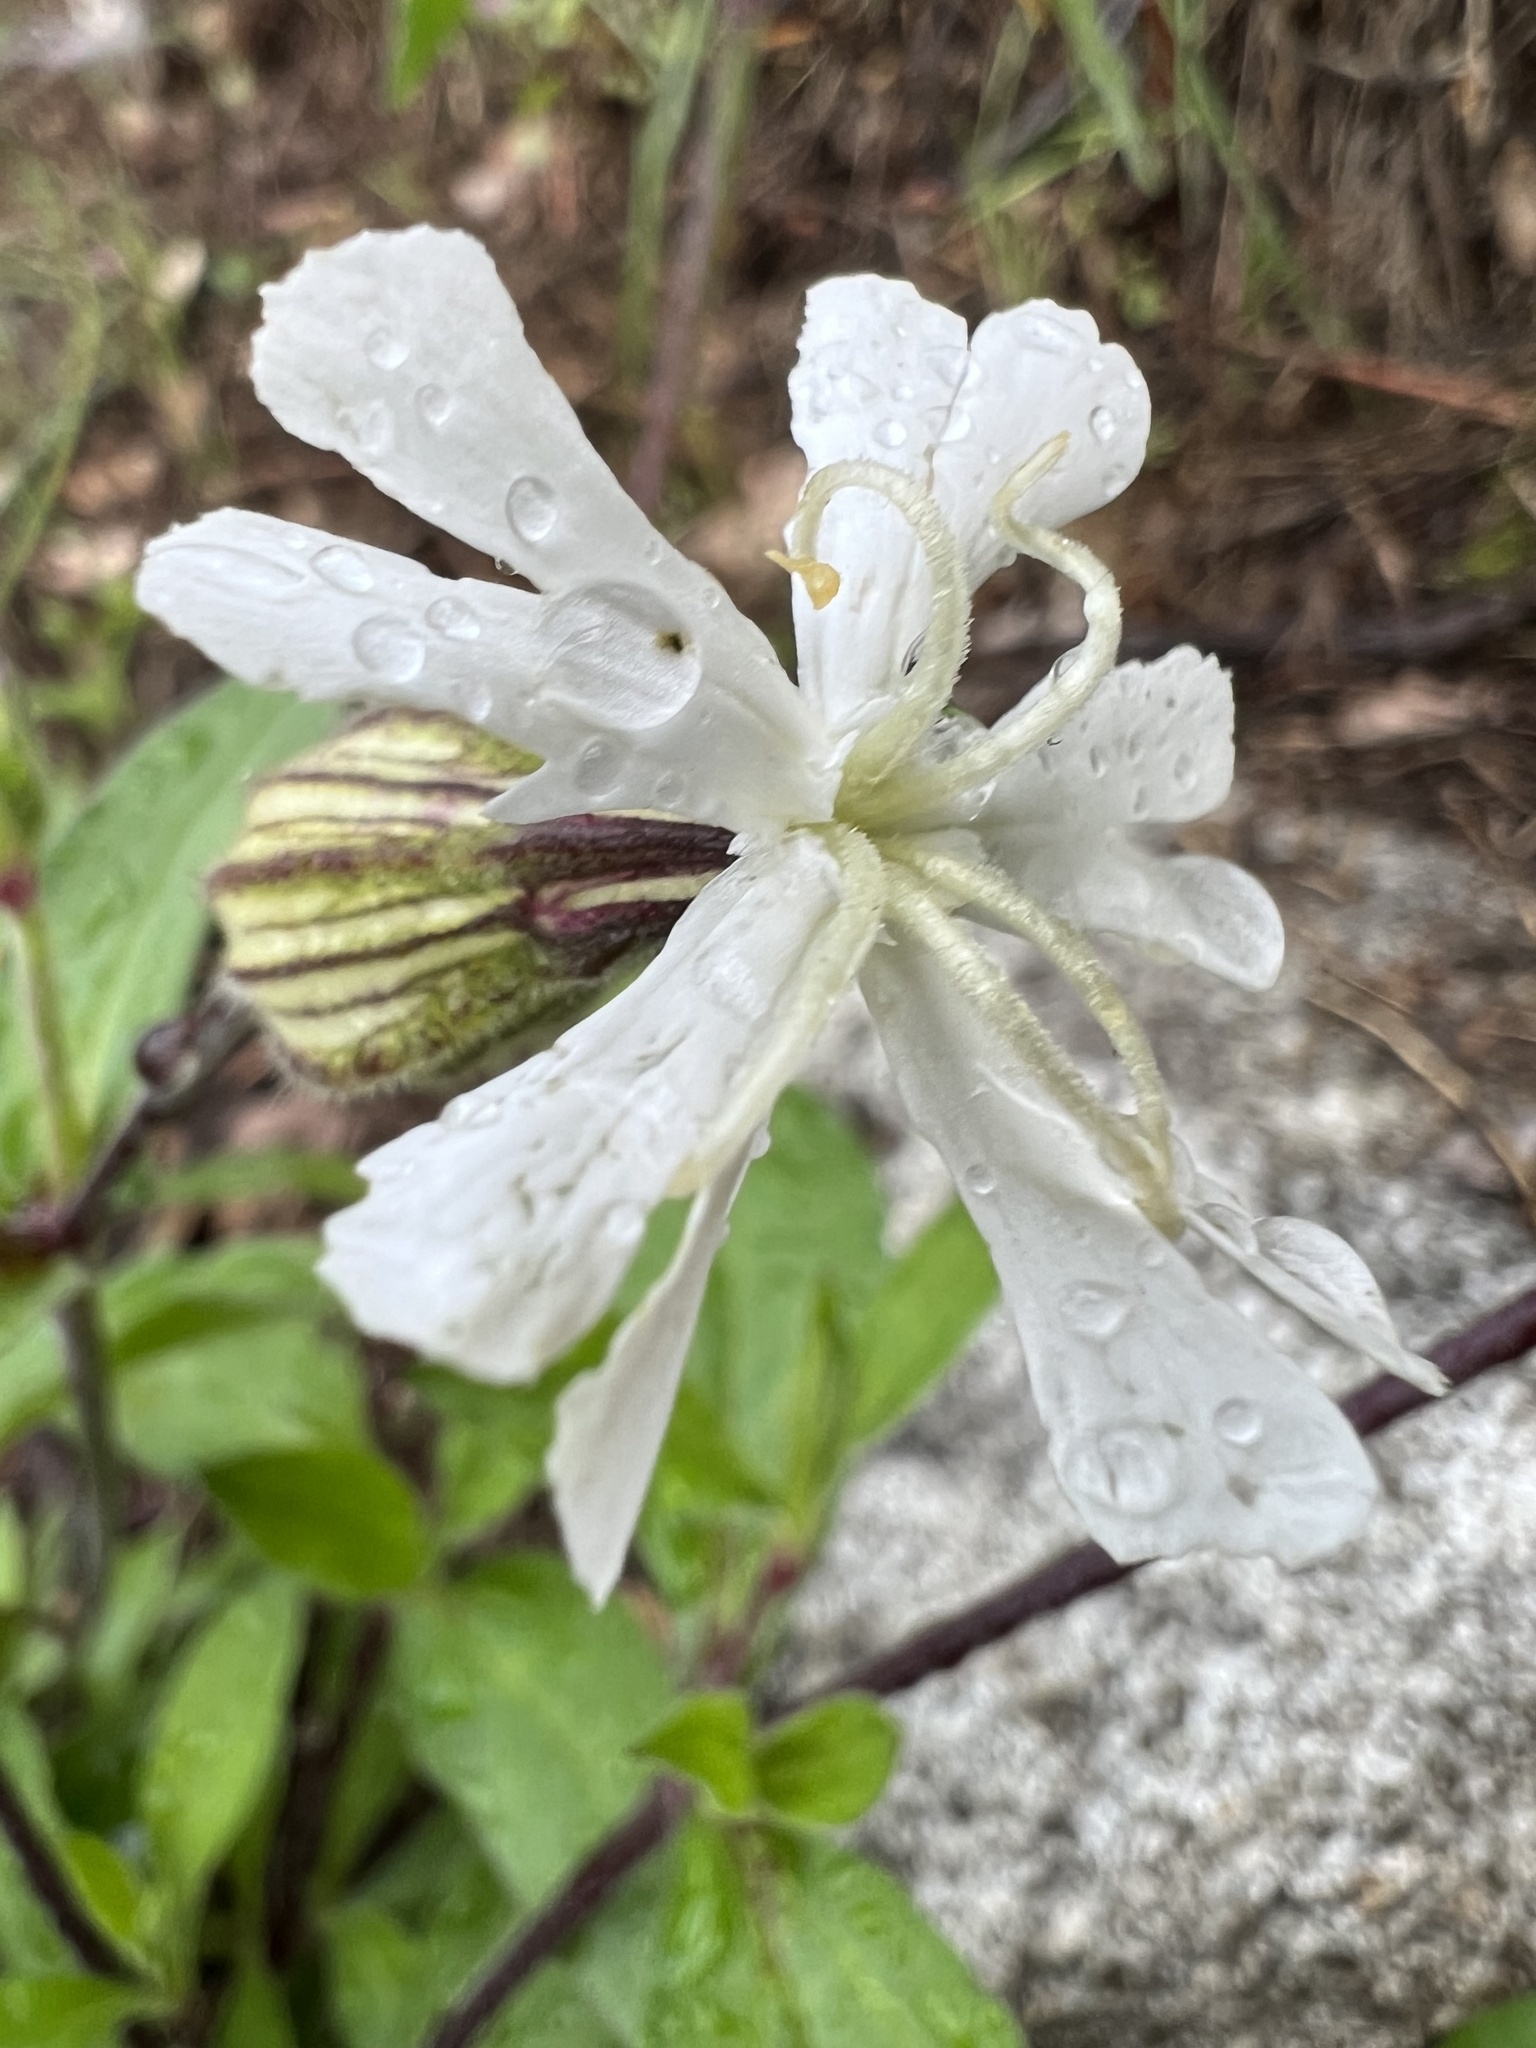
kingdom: Plantae
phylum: Tracheophyta
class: Magnoliopsida
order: Caryophyllales
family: Caryophyllaceae
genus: Silene
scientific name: Silene latifolia
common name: White campion
